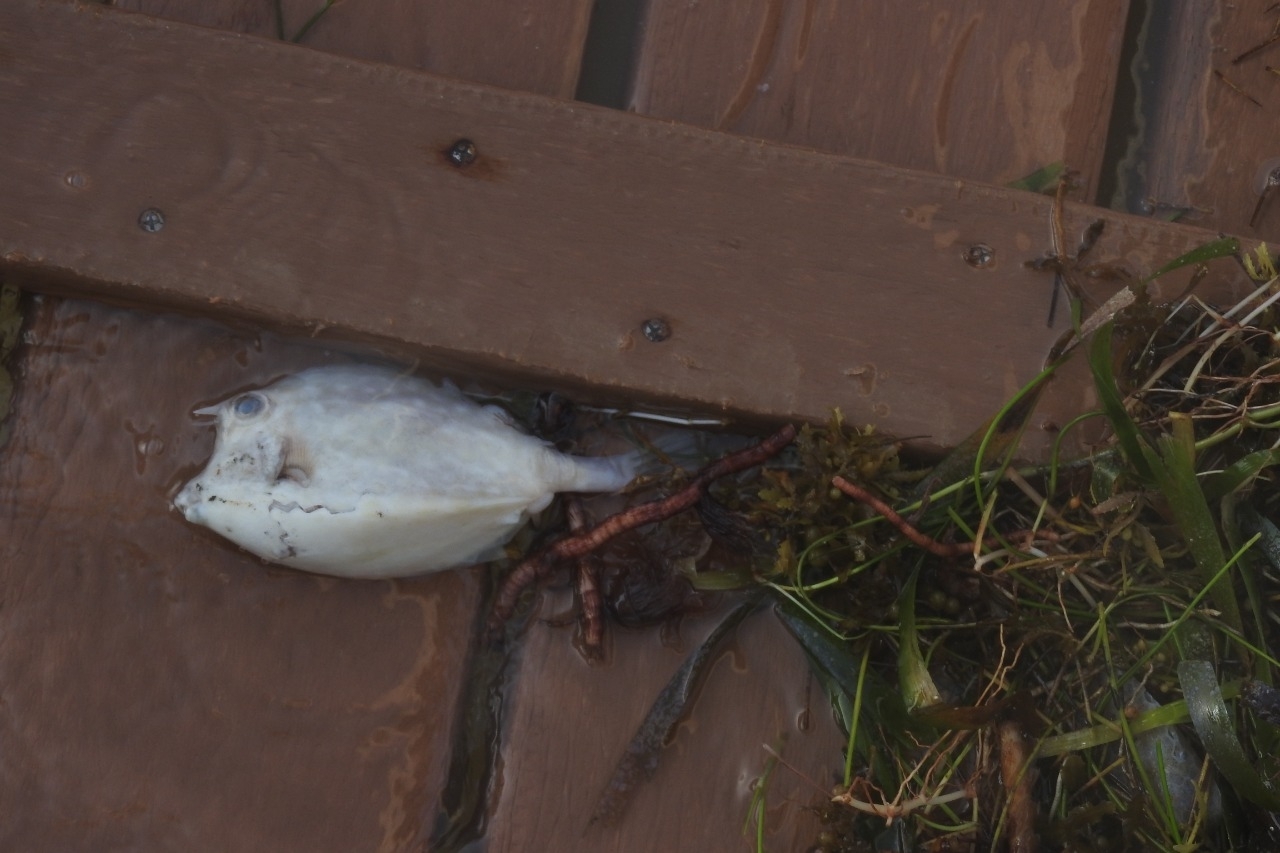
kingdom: Animalia
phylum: Chordata
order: Tetraodontiformes
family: Ostraciidae
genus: Acanthostracion
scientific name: Acanthostracion quadricornis
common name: Scrawled cowfish
